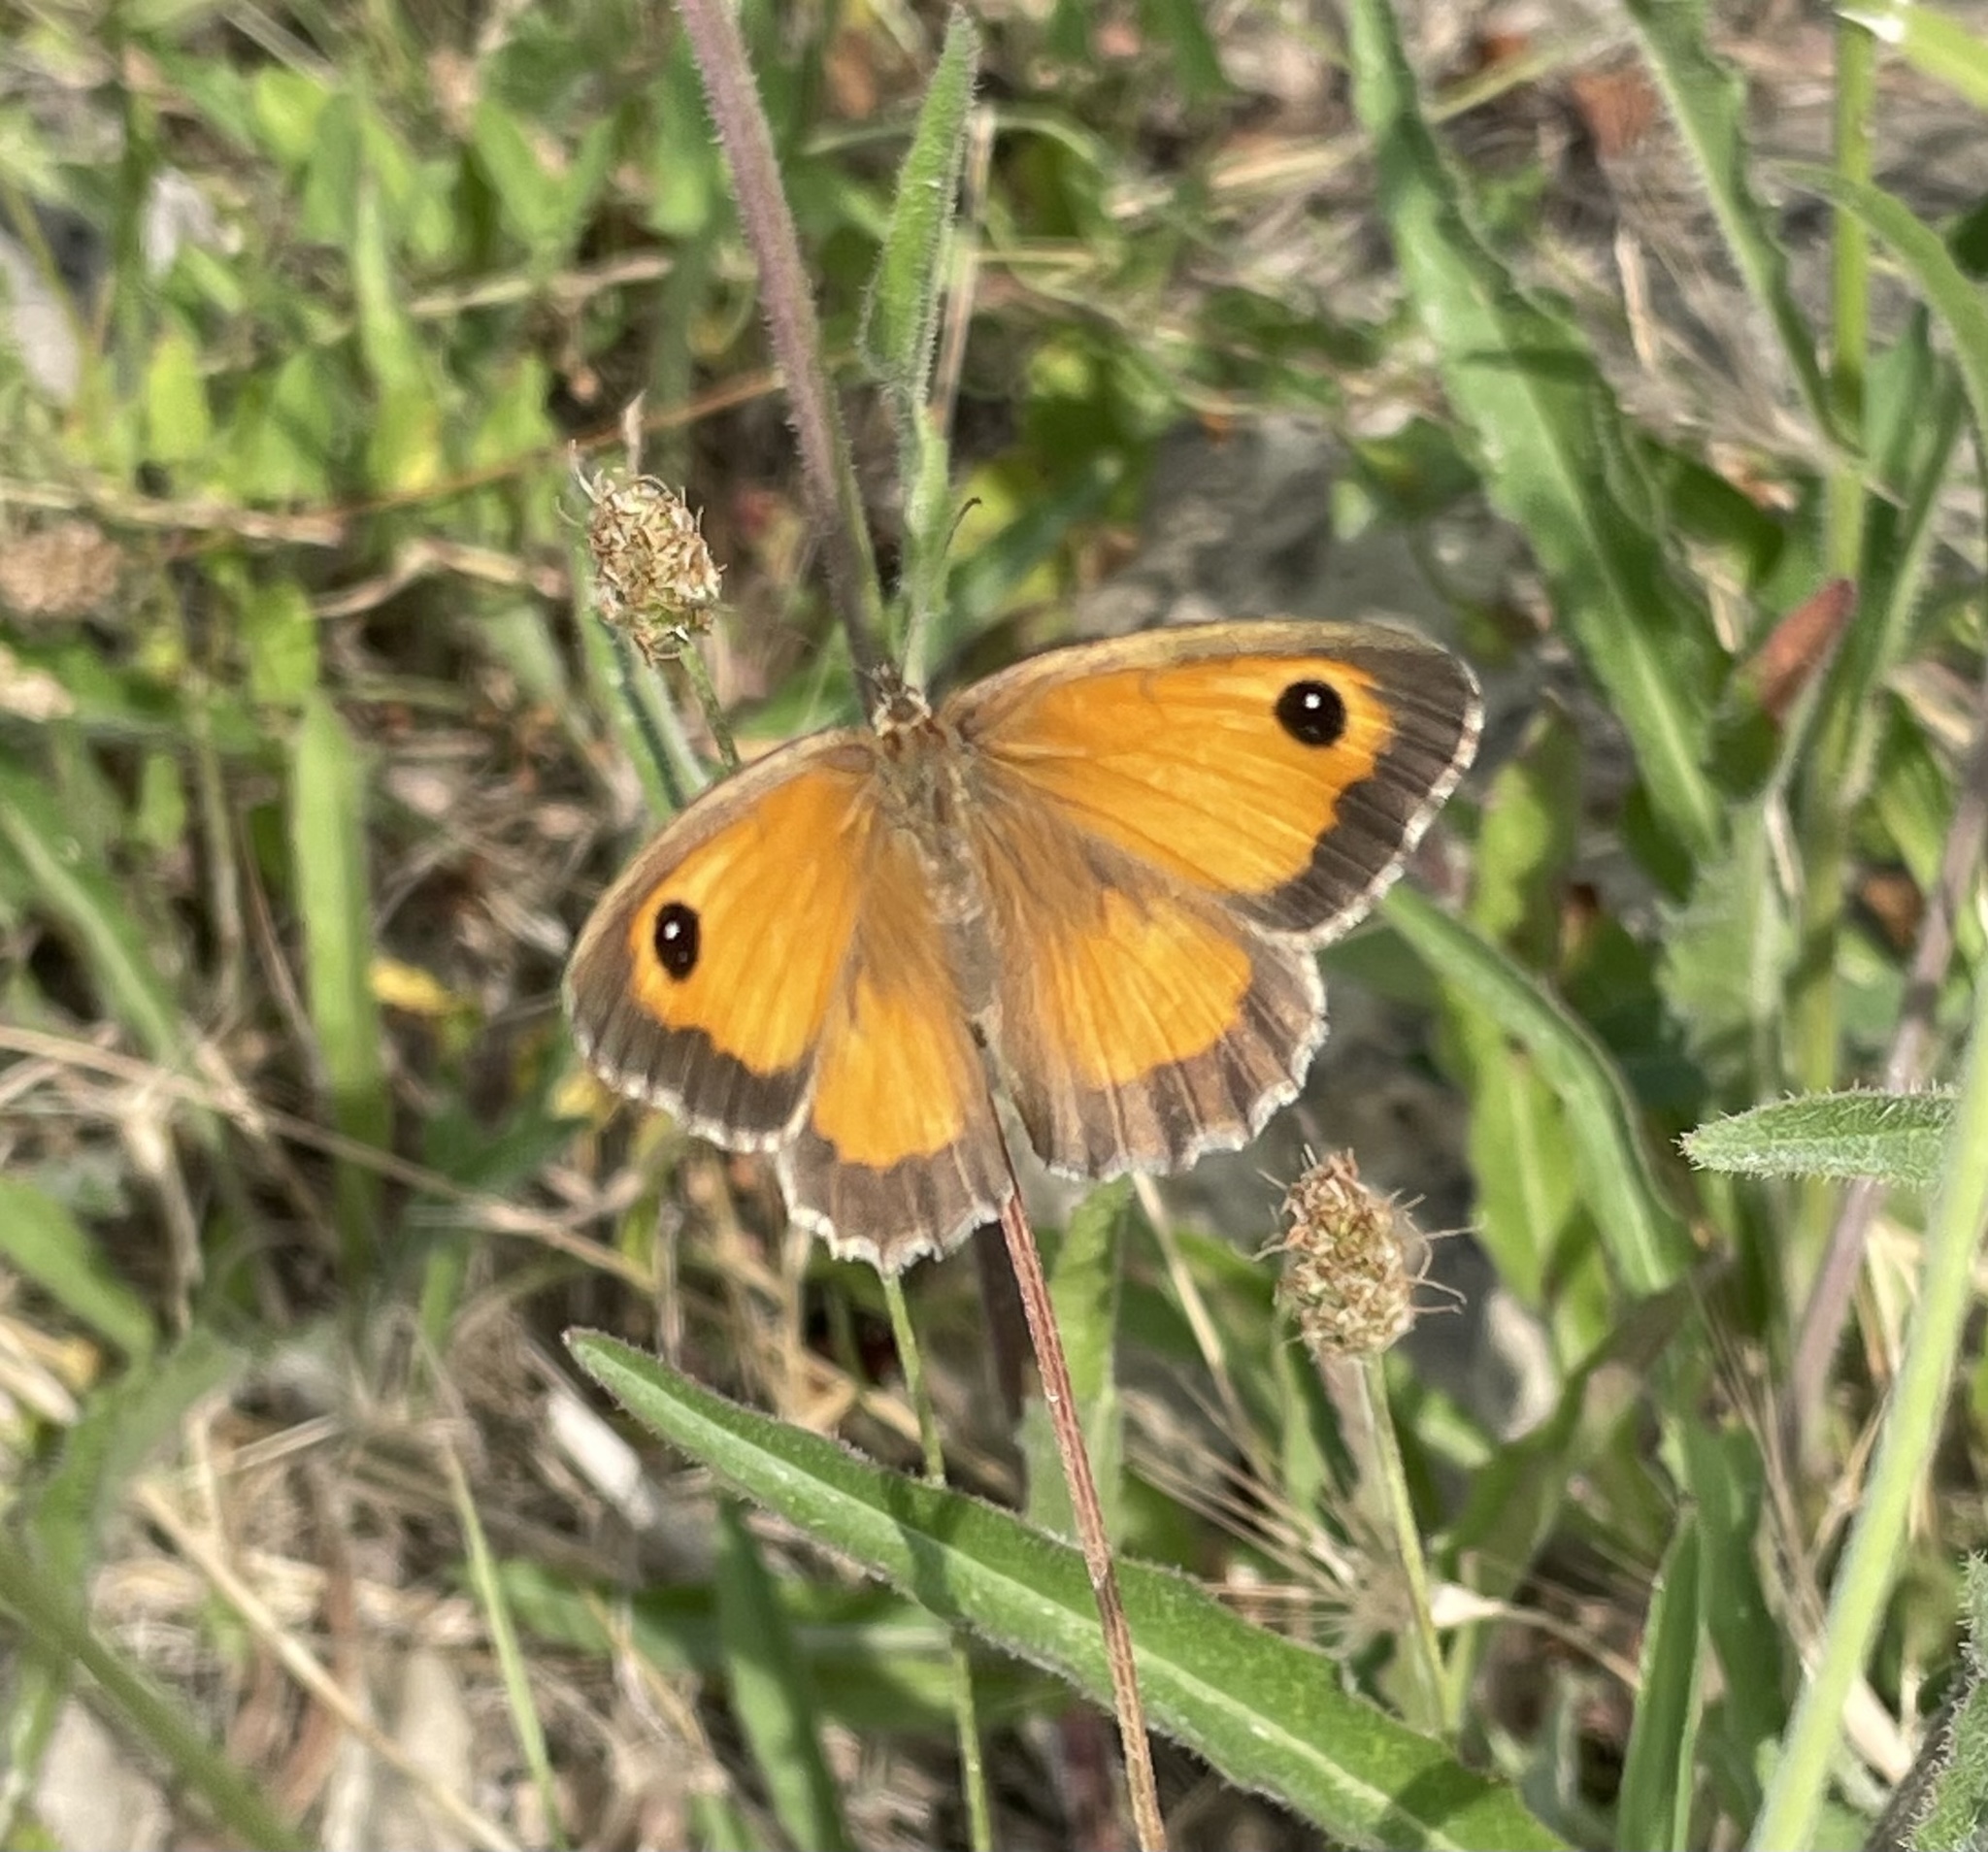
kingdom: Animalia
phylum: Arthropoda
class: Insecta
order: Lepidoptera
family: Nymphalidae
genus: Pyronia
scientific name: Pyronia cecilia
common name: Southern gatekeeper
